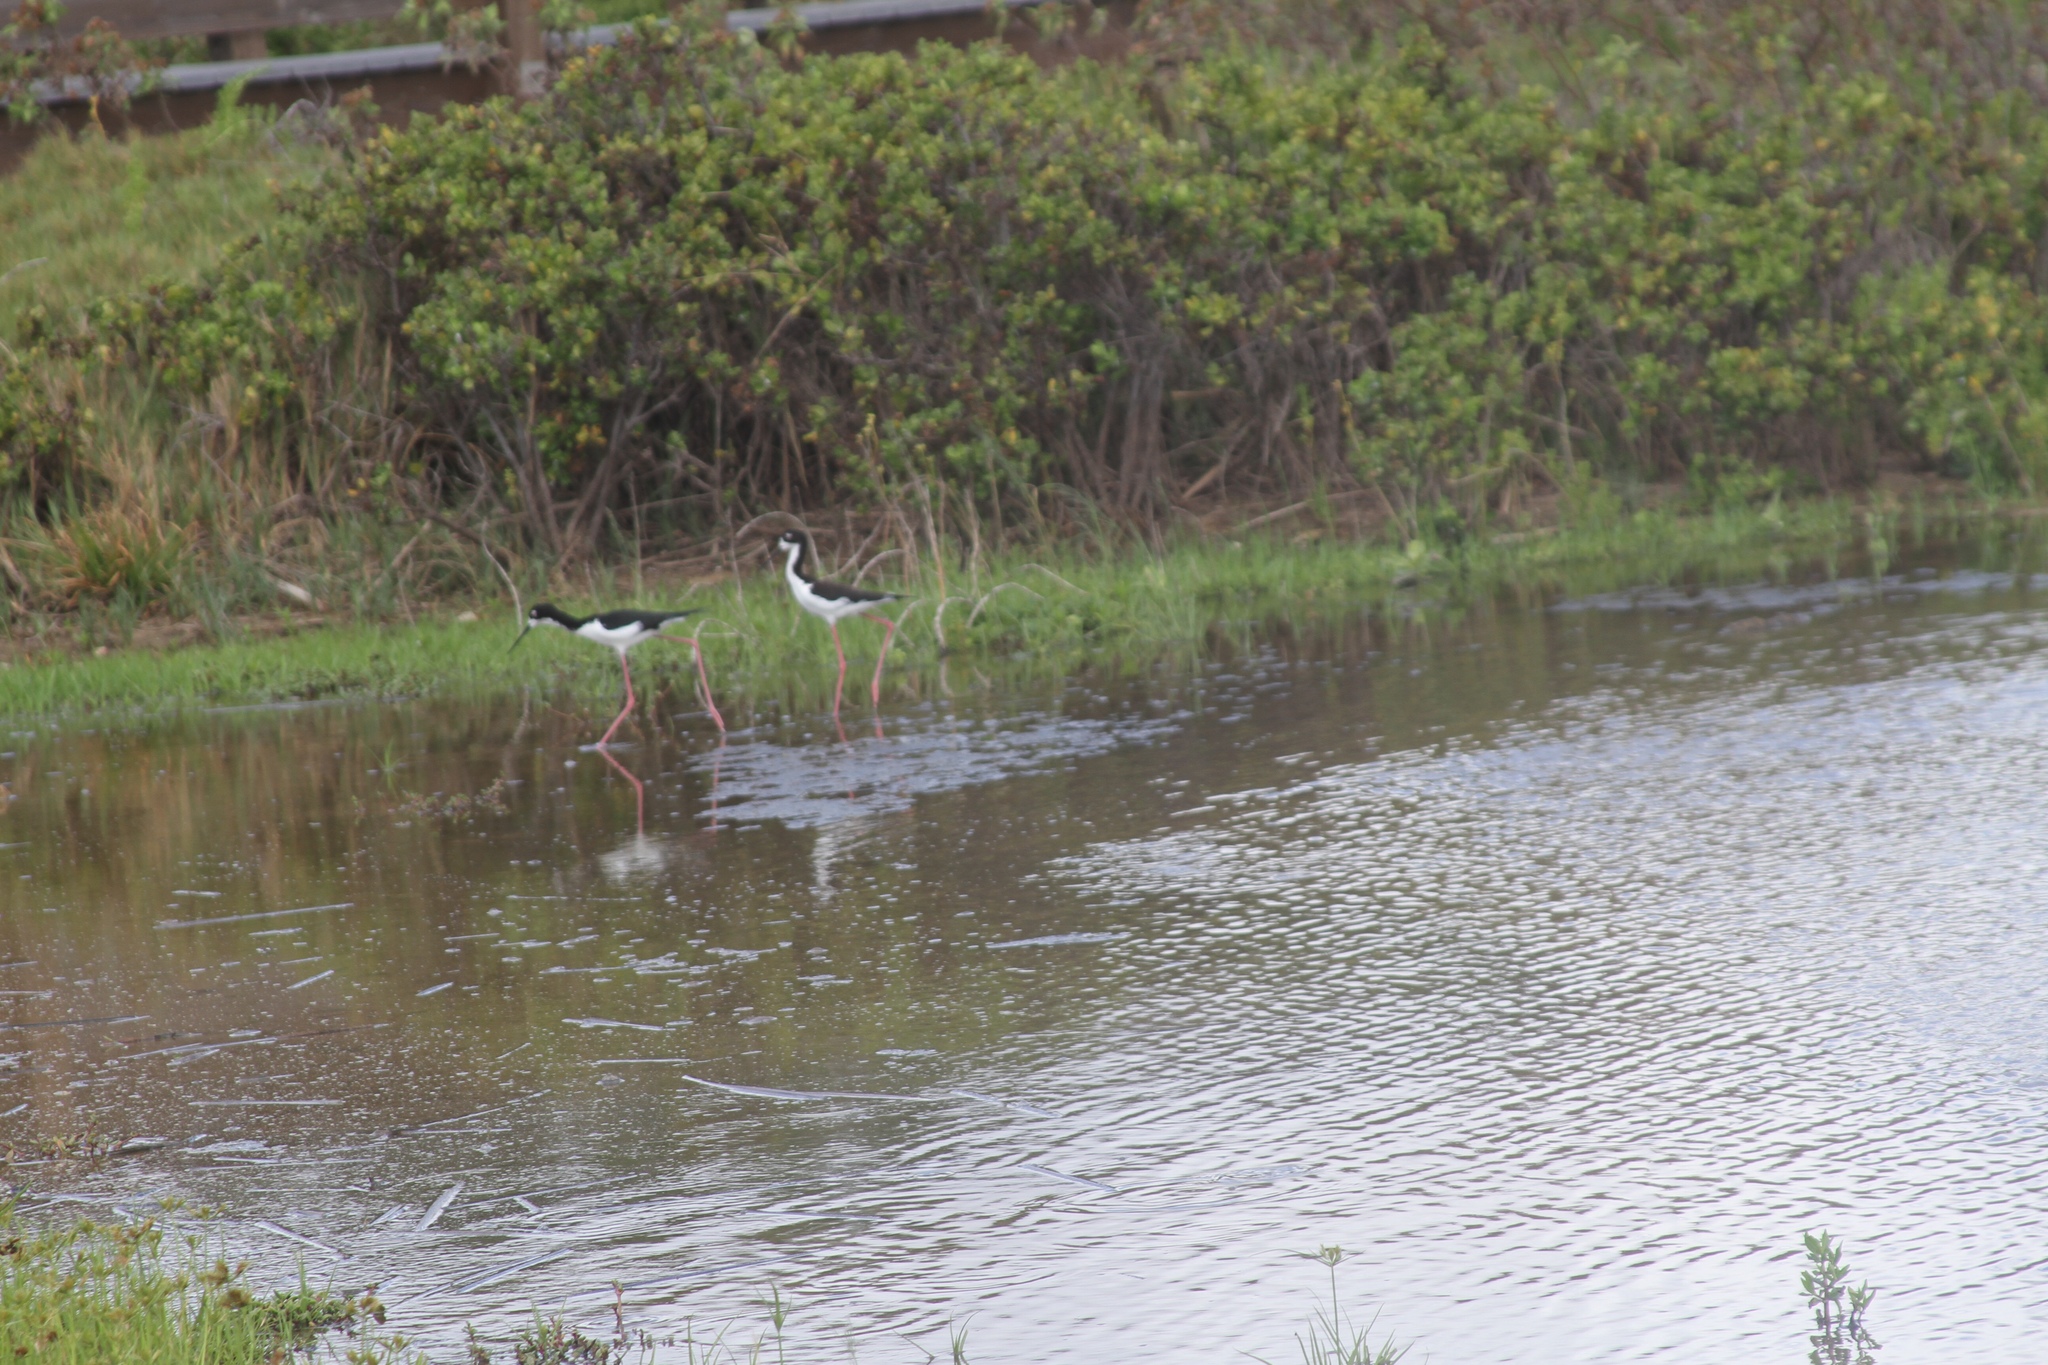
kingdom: Animalia
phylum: Chordata
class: Aves
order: Charadriiformes
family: Recurvirostridae
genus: Himantopus
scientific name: Himantopus mexicanus
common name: Black-necked stilt
